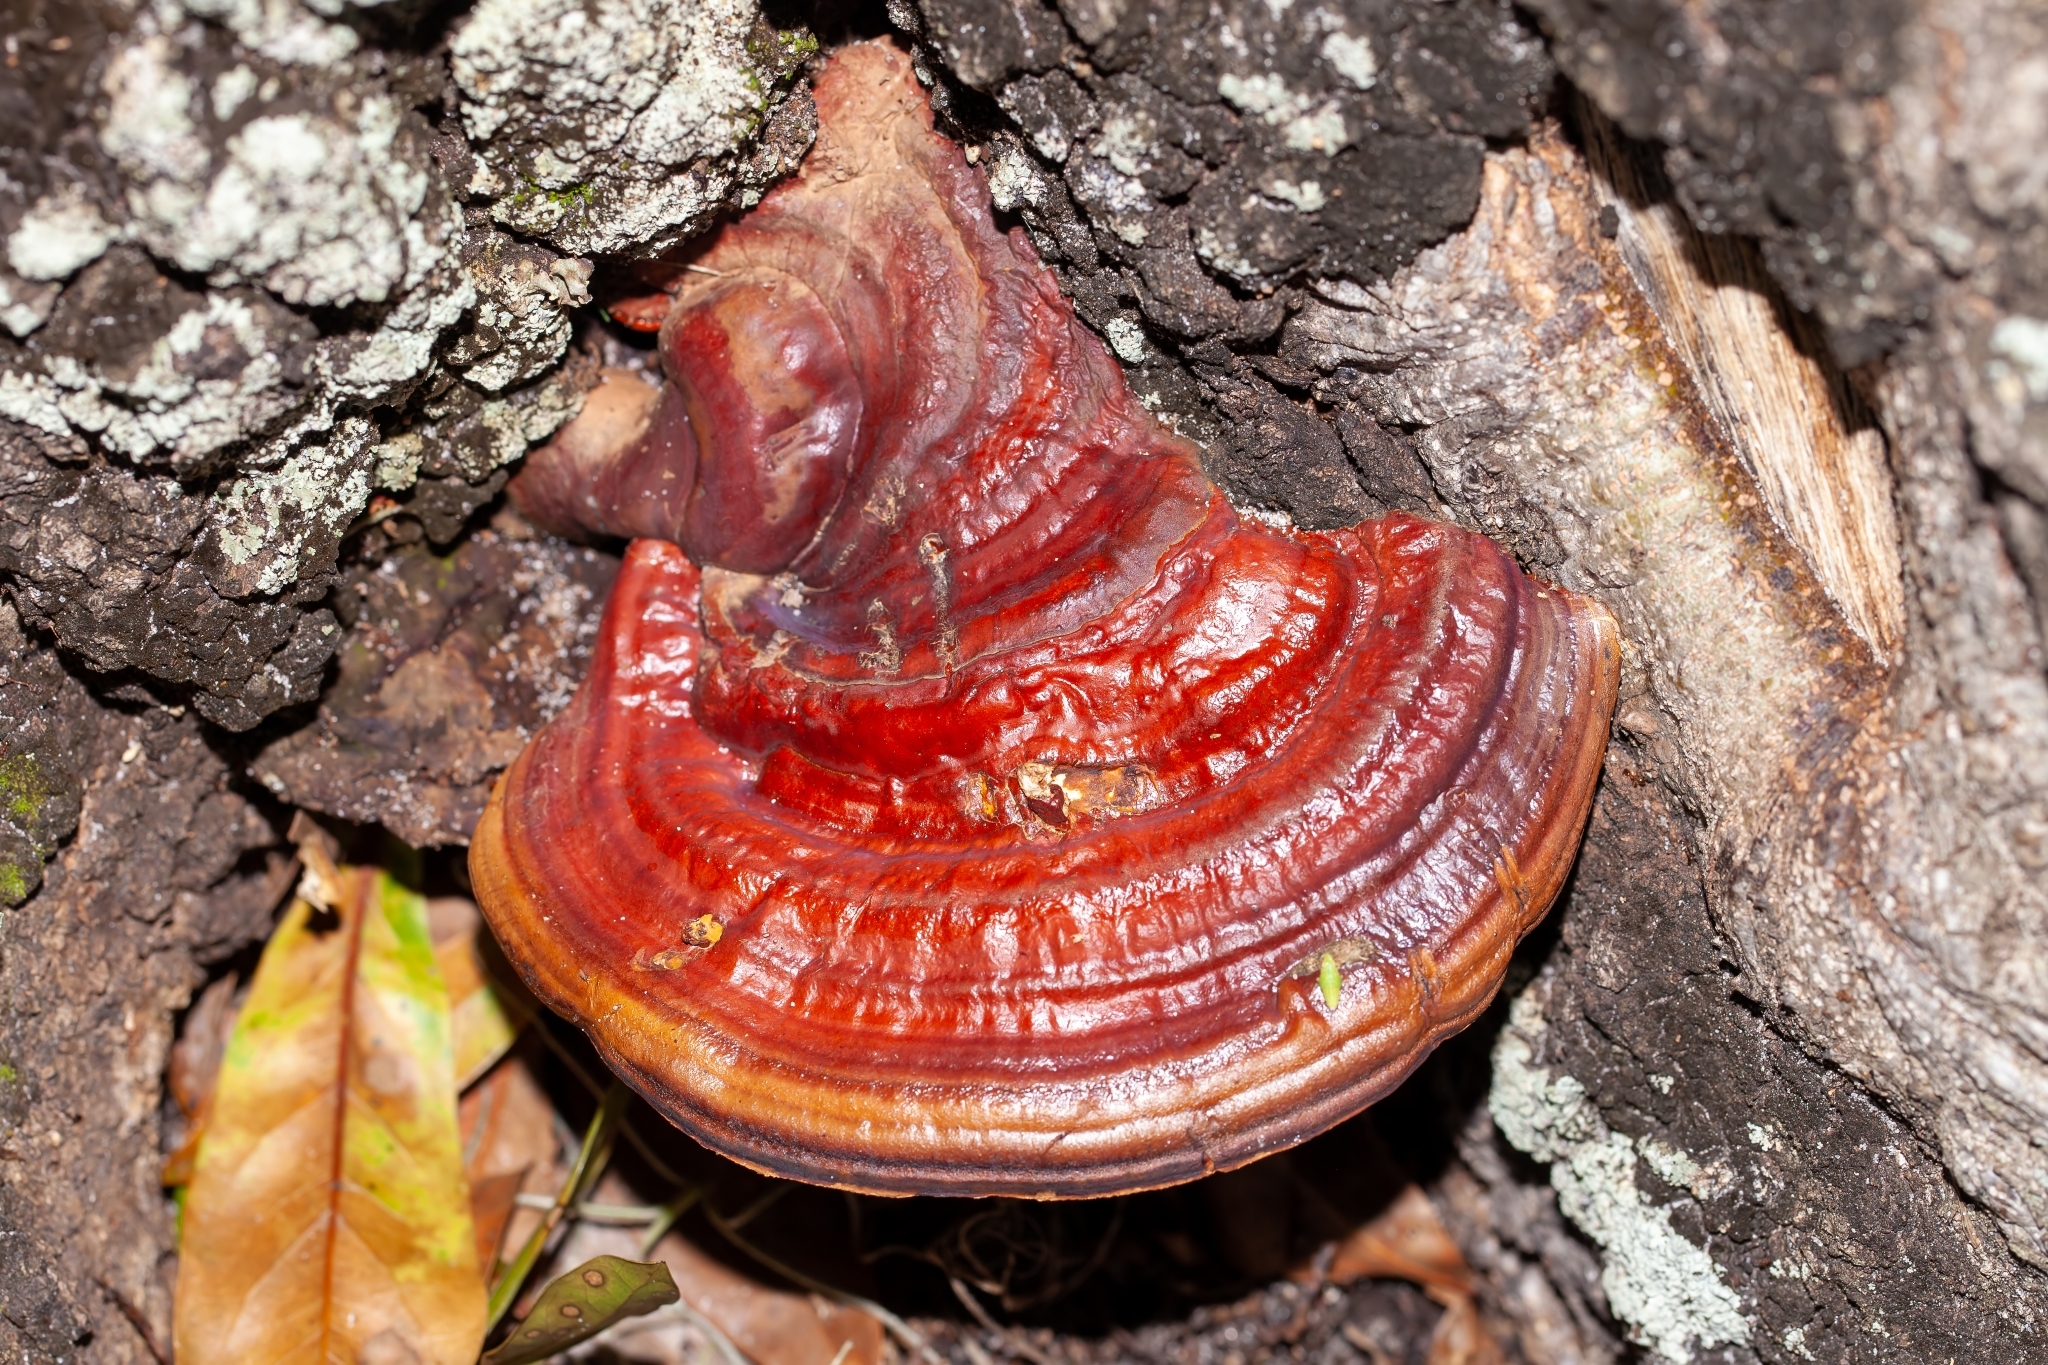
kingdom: Fungi
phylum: Basidiomycota
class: Agaricomycetes
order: Polyporales
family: Polyporaceae
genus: Ganoderma
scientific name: Ganoderma resinaceum
